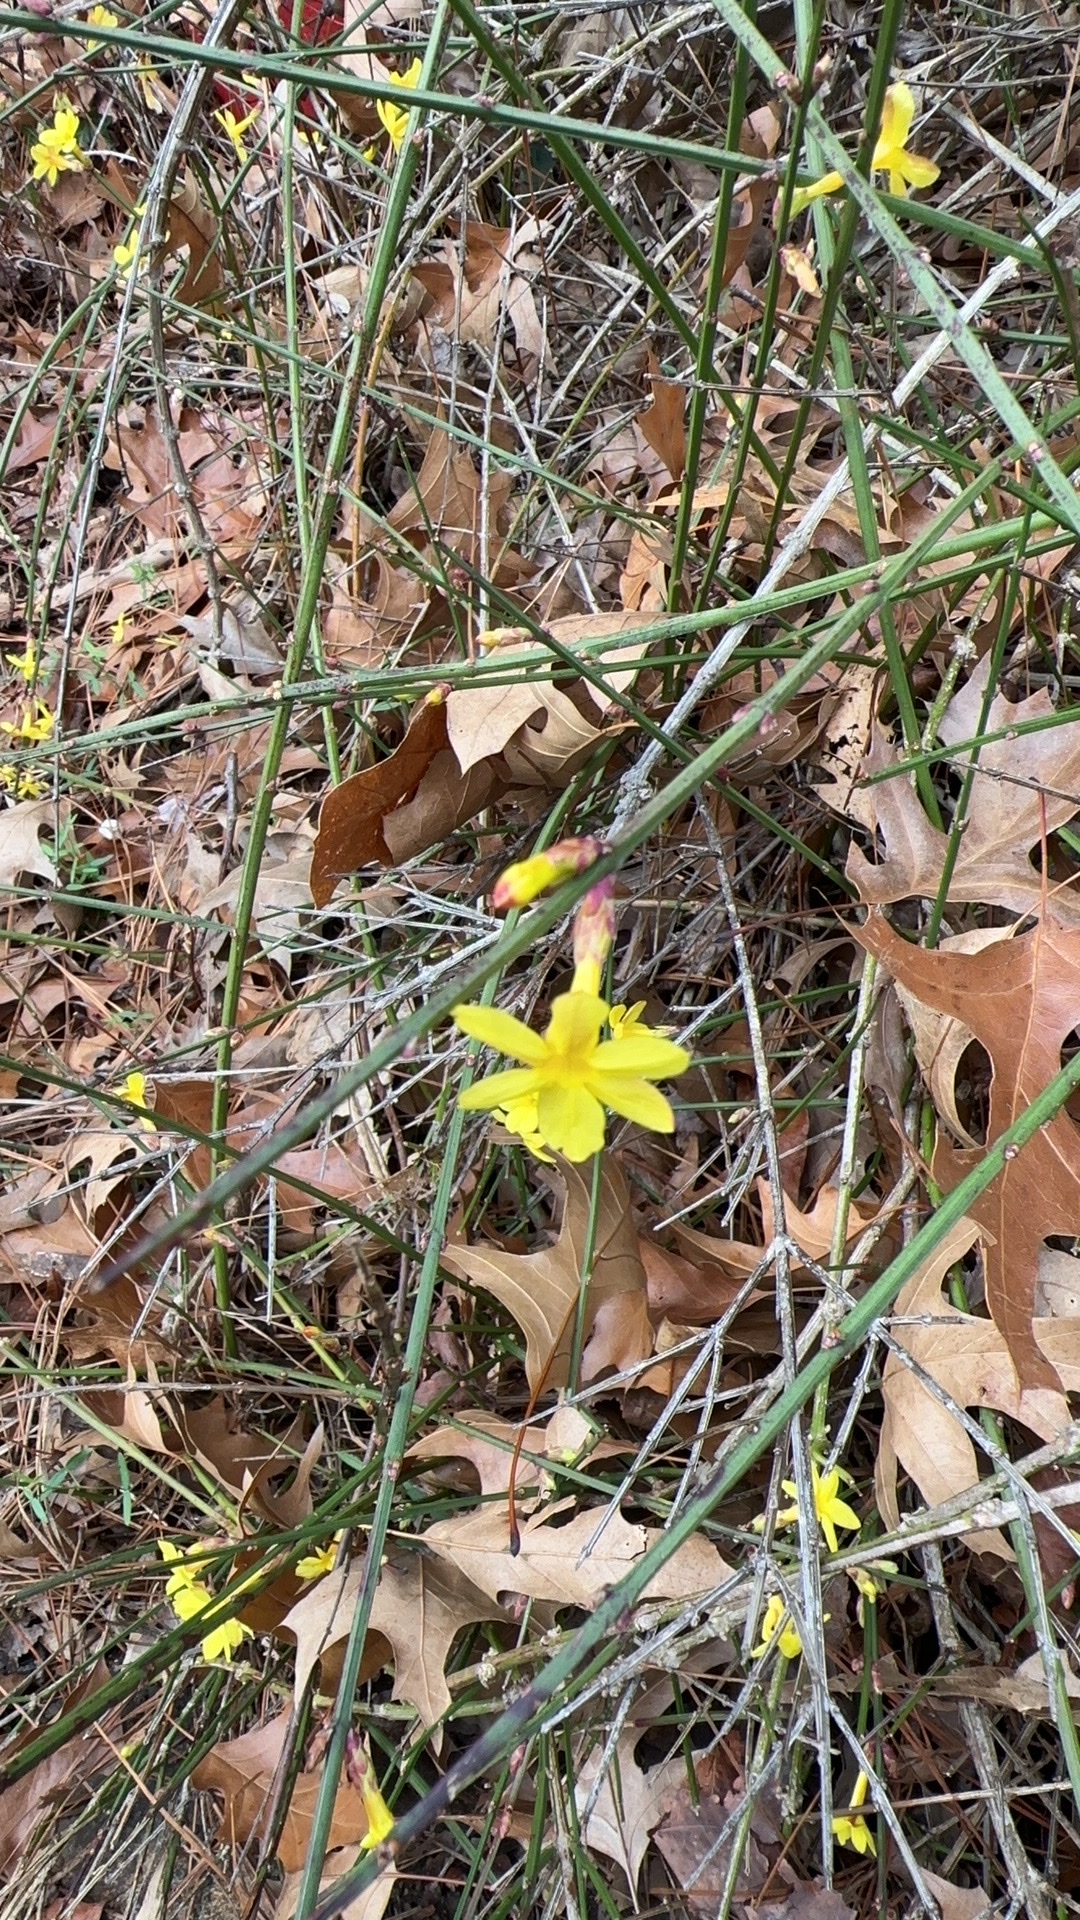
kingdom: Plantae
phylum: Tracheophyta
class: Magnoliopsida
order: Lamiales
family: Oleaceae
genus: Jasminum
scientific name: Jasminum nudiflorum
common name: Winter jasmine
